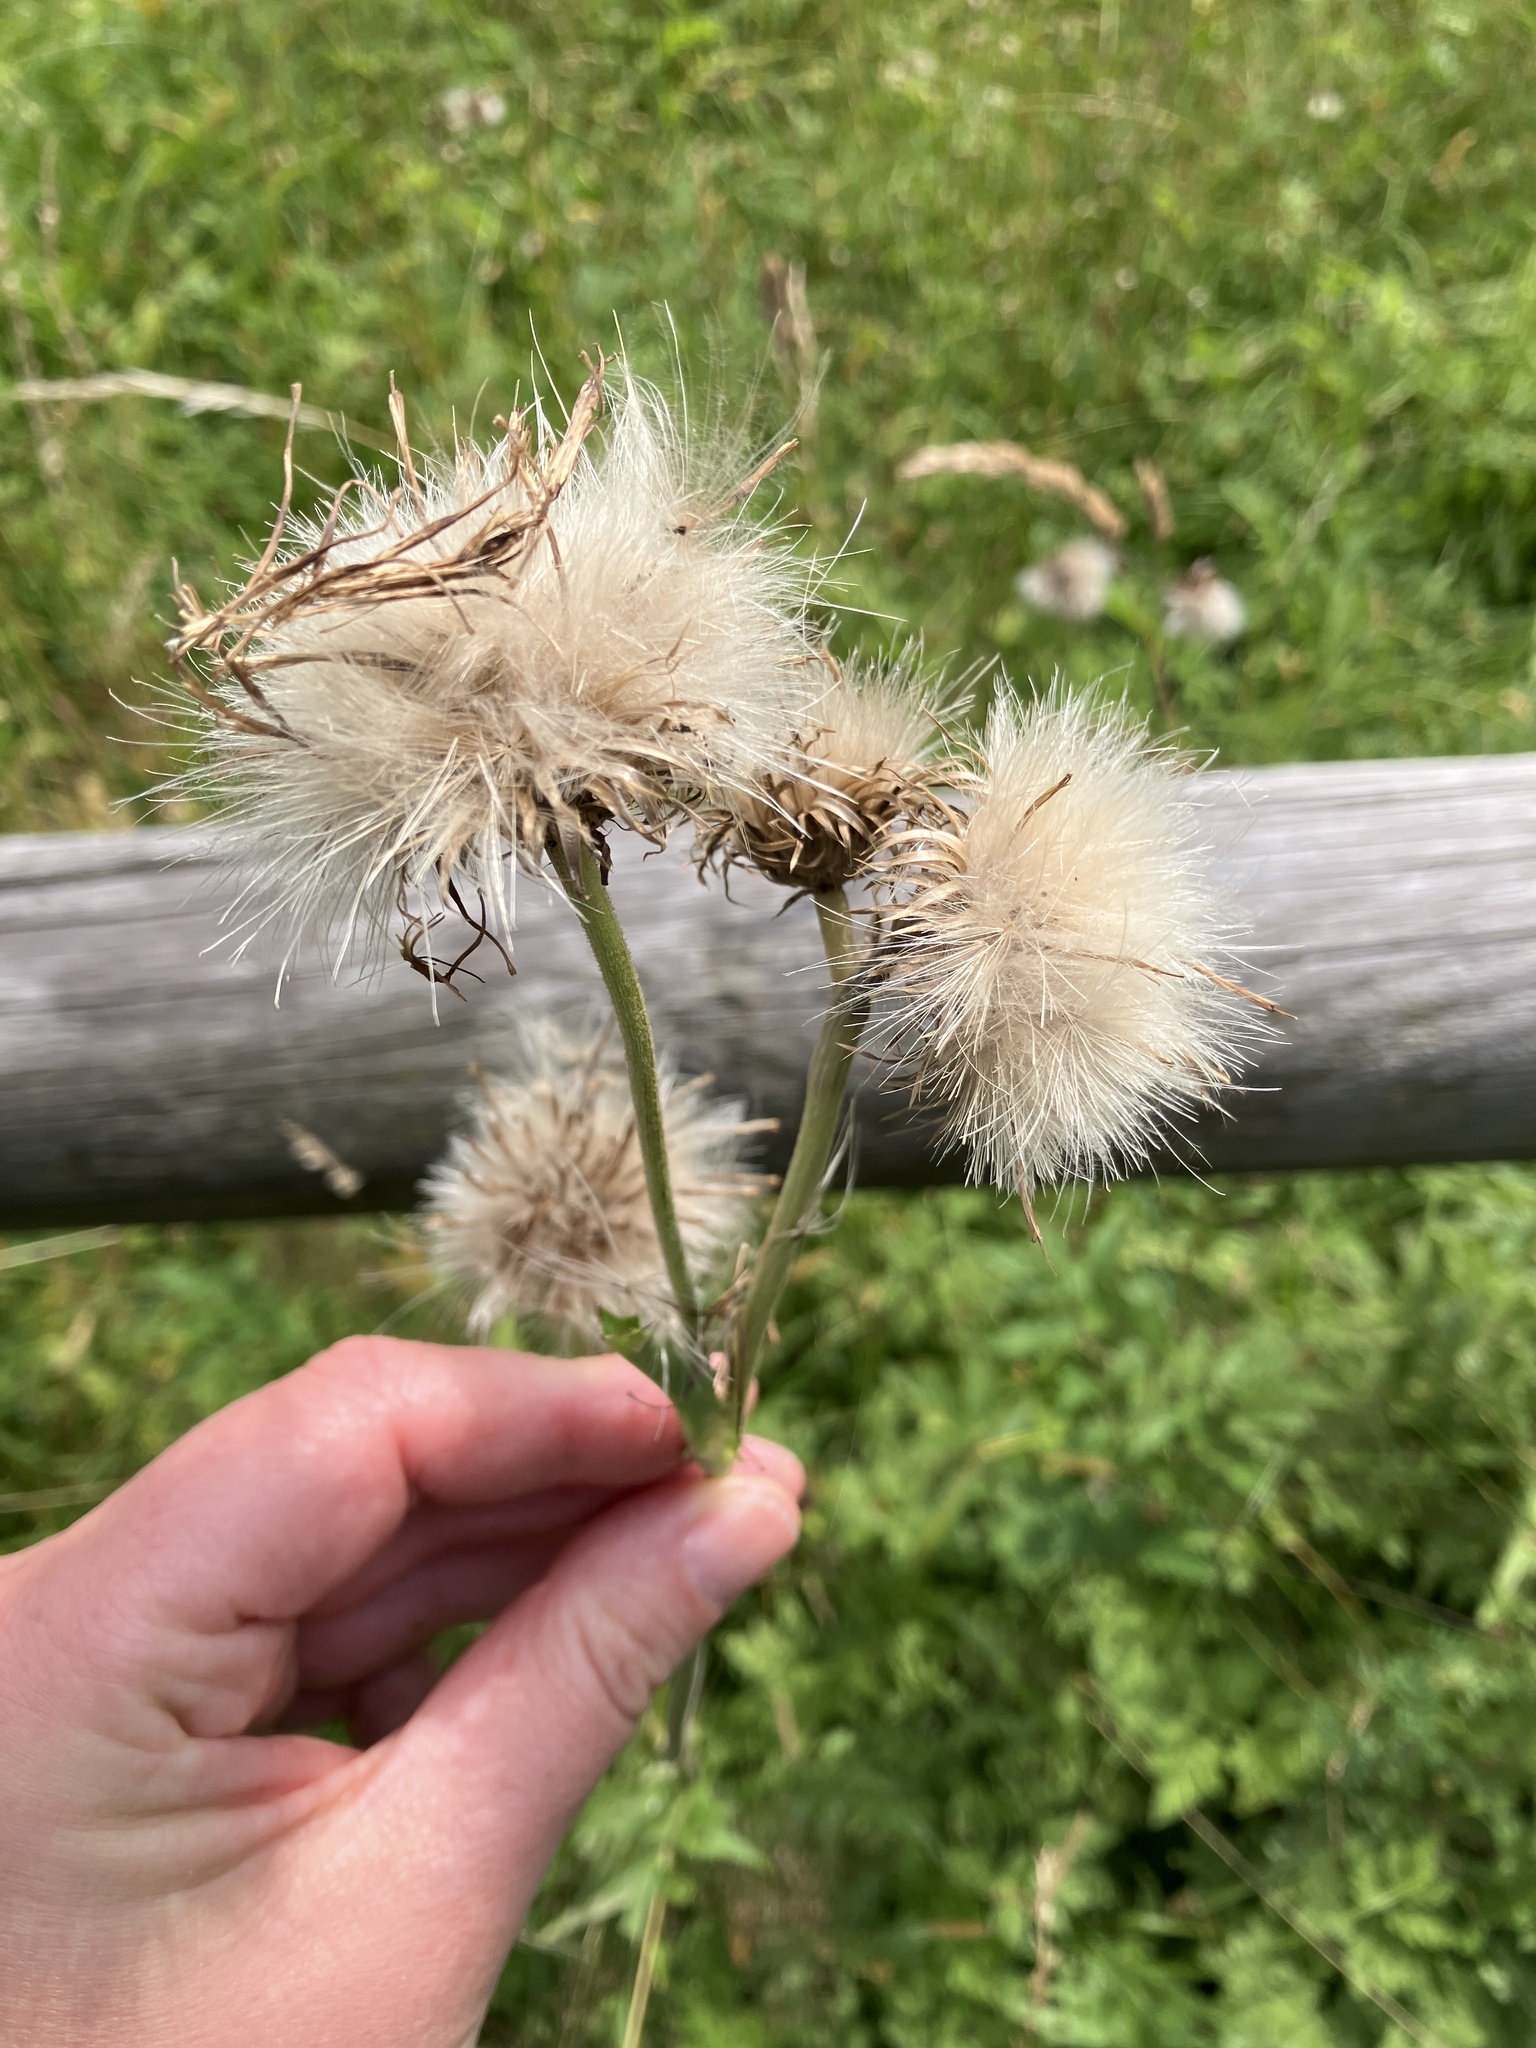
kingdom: Plantae
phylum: Tracheophyta
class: Magnoliopsida
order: Asterales
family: Asteraceae
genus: Cirsium
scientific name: Cirsium rivulare
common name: Brook thistle
